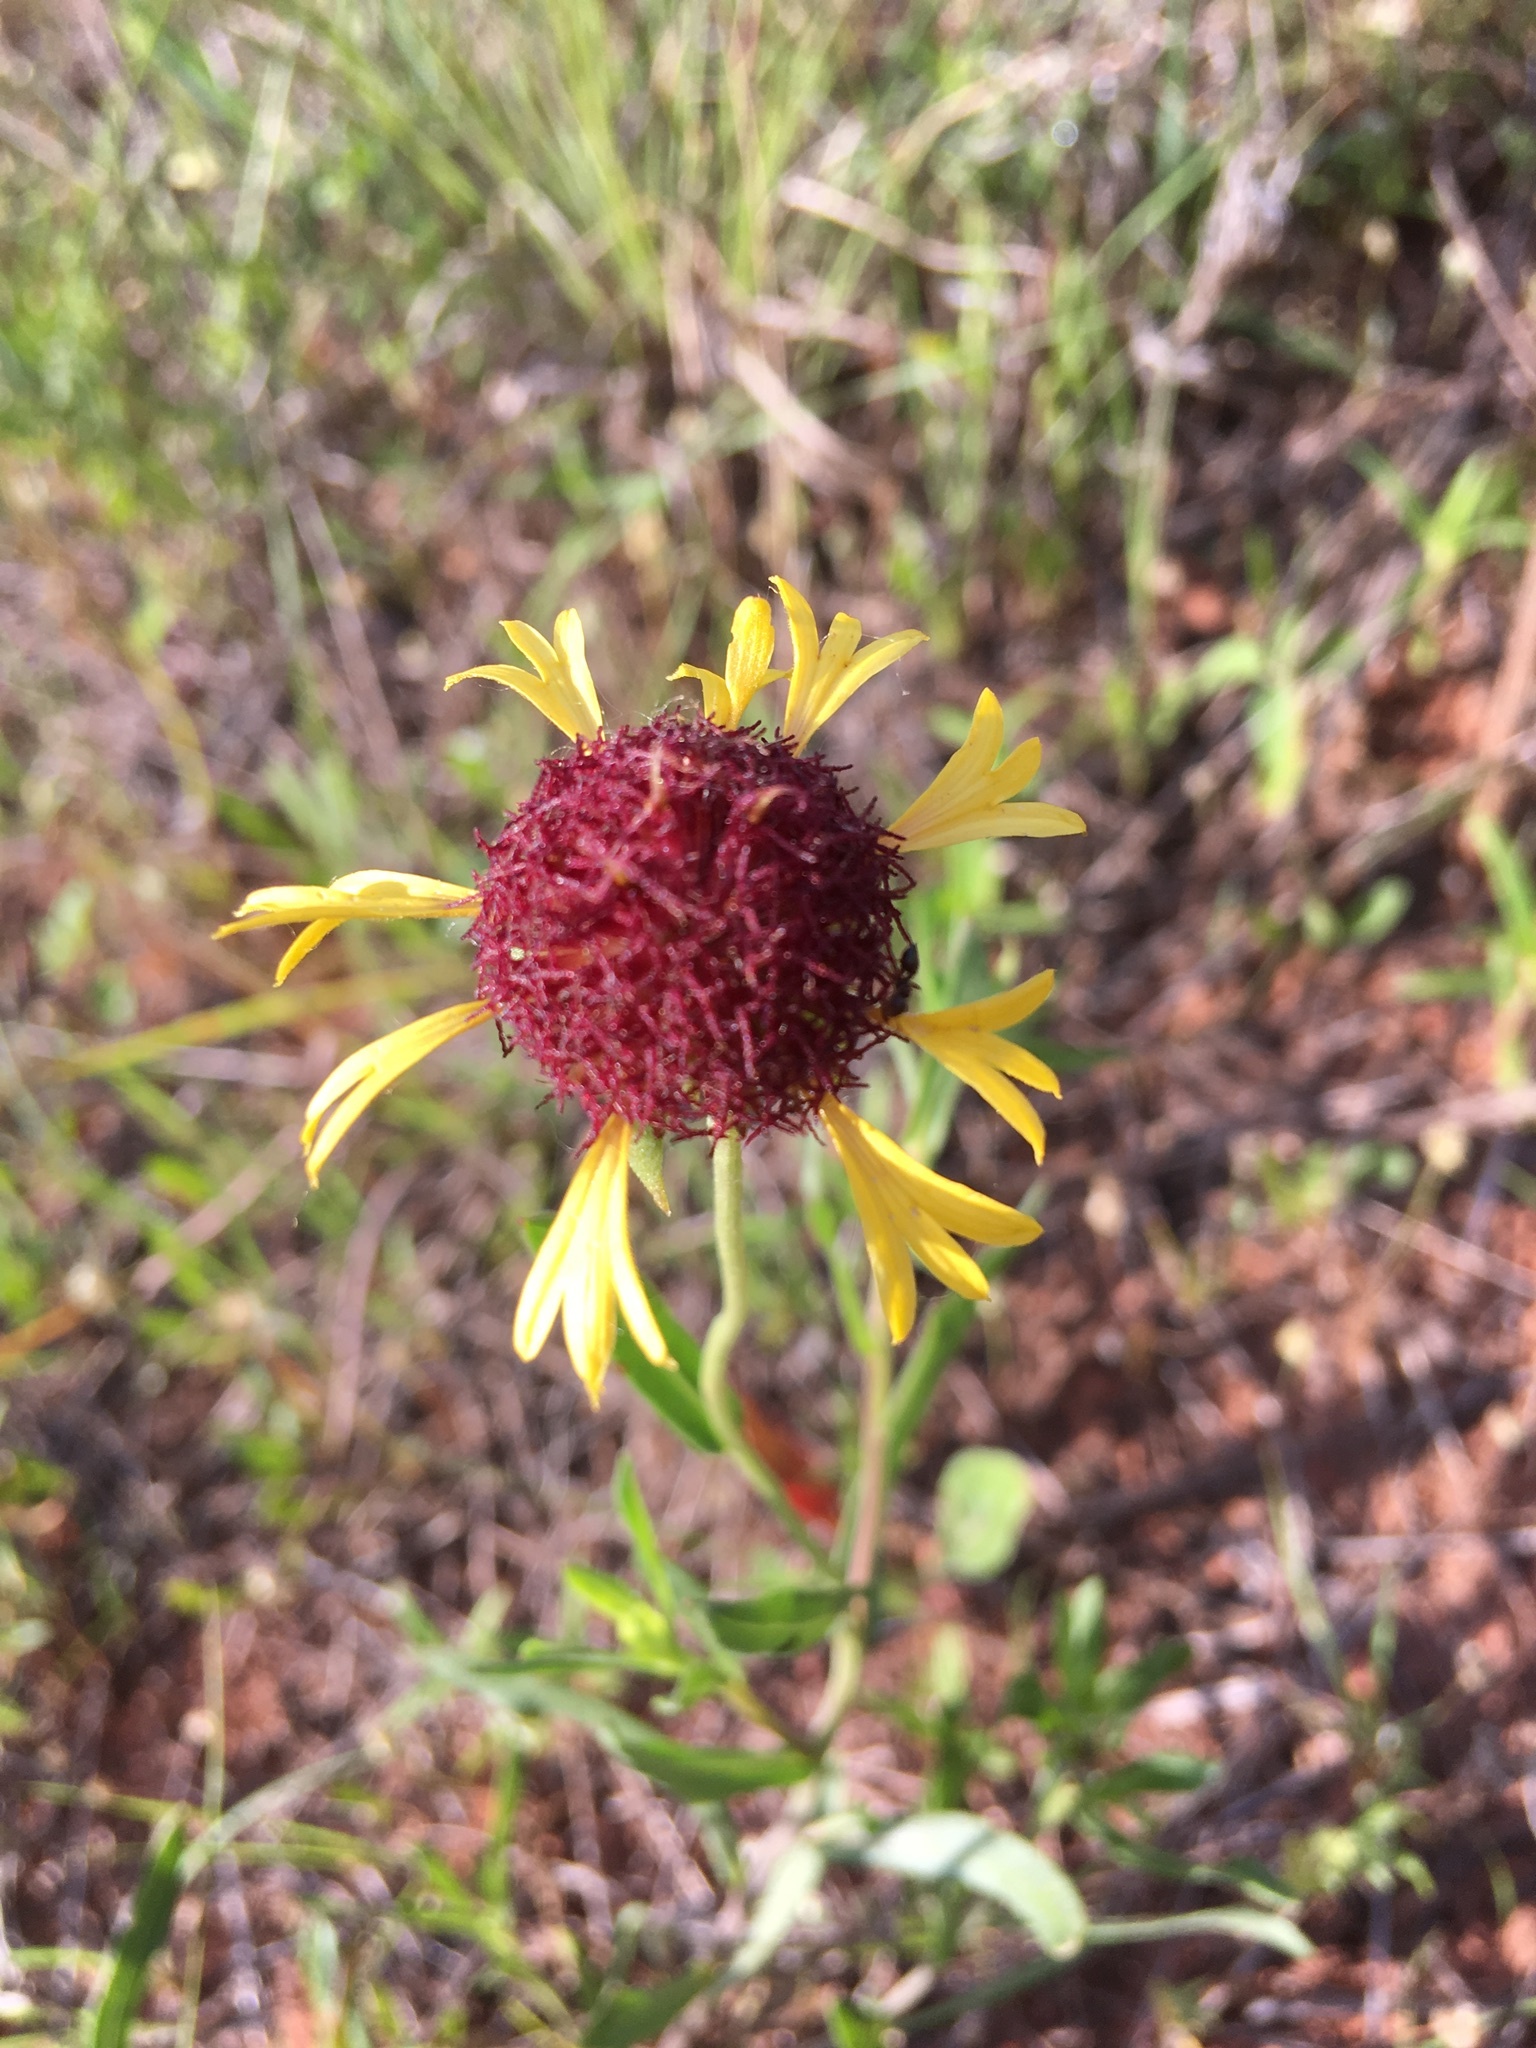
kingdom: Plantae
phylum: Tracheophyta
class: Magnoliopsida
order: Asterales
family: Asteraceae
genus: Gaillardia
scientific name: Gaillardia aestivalis
